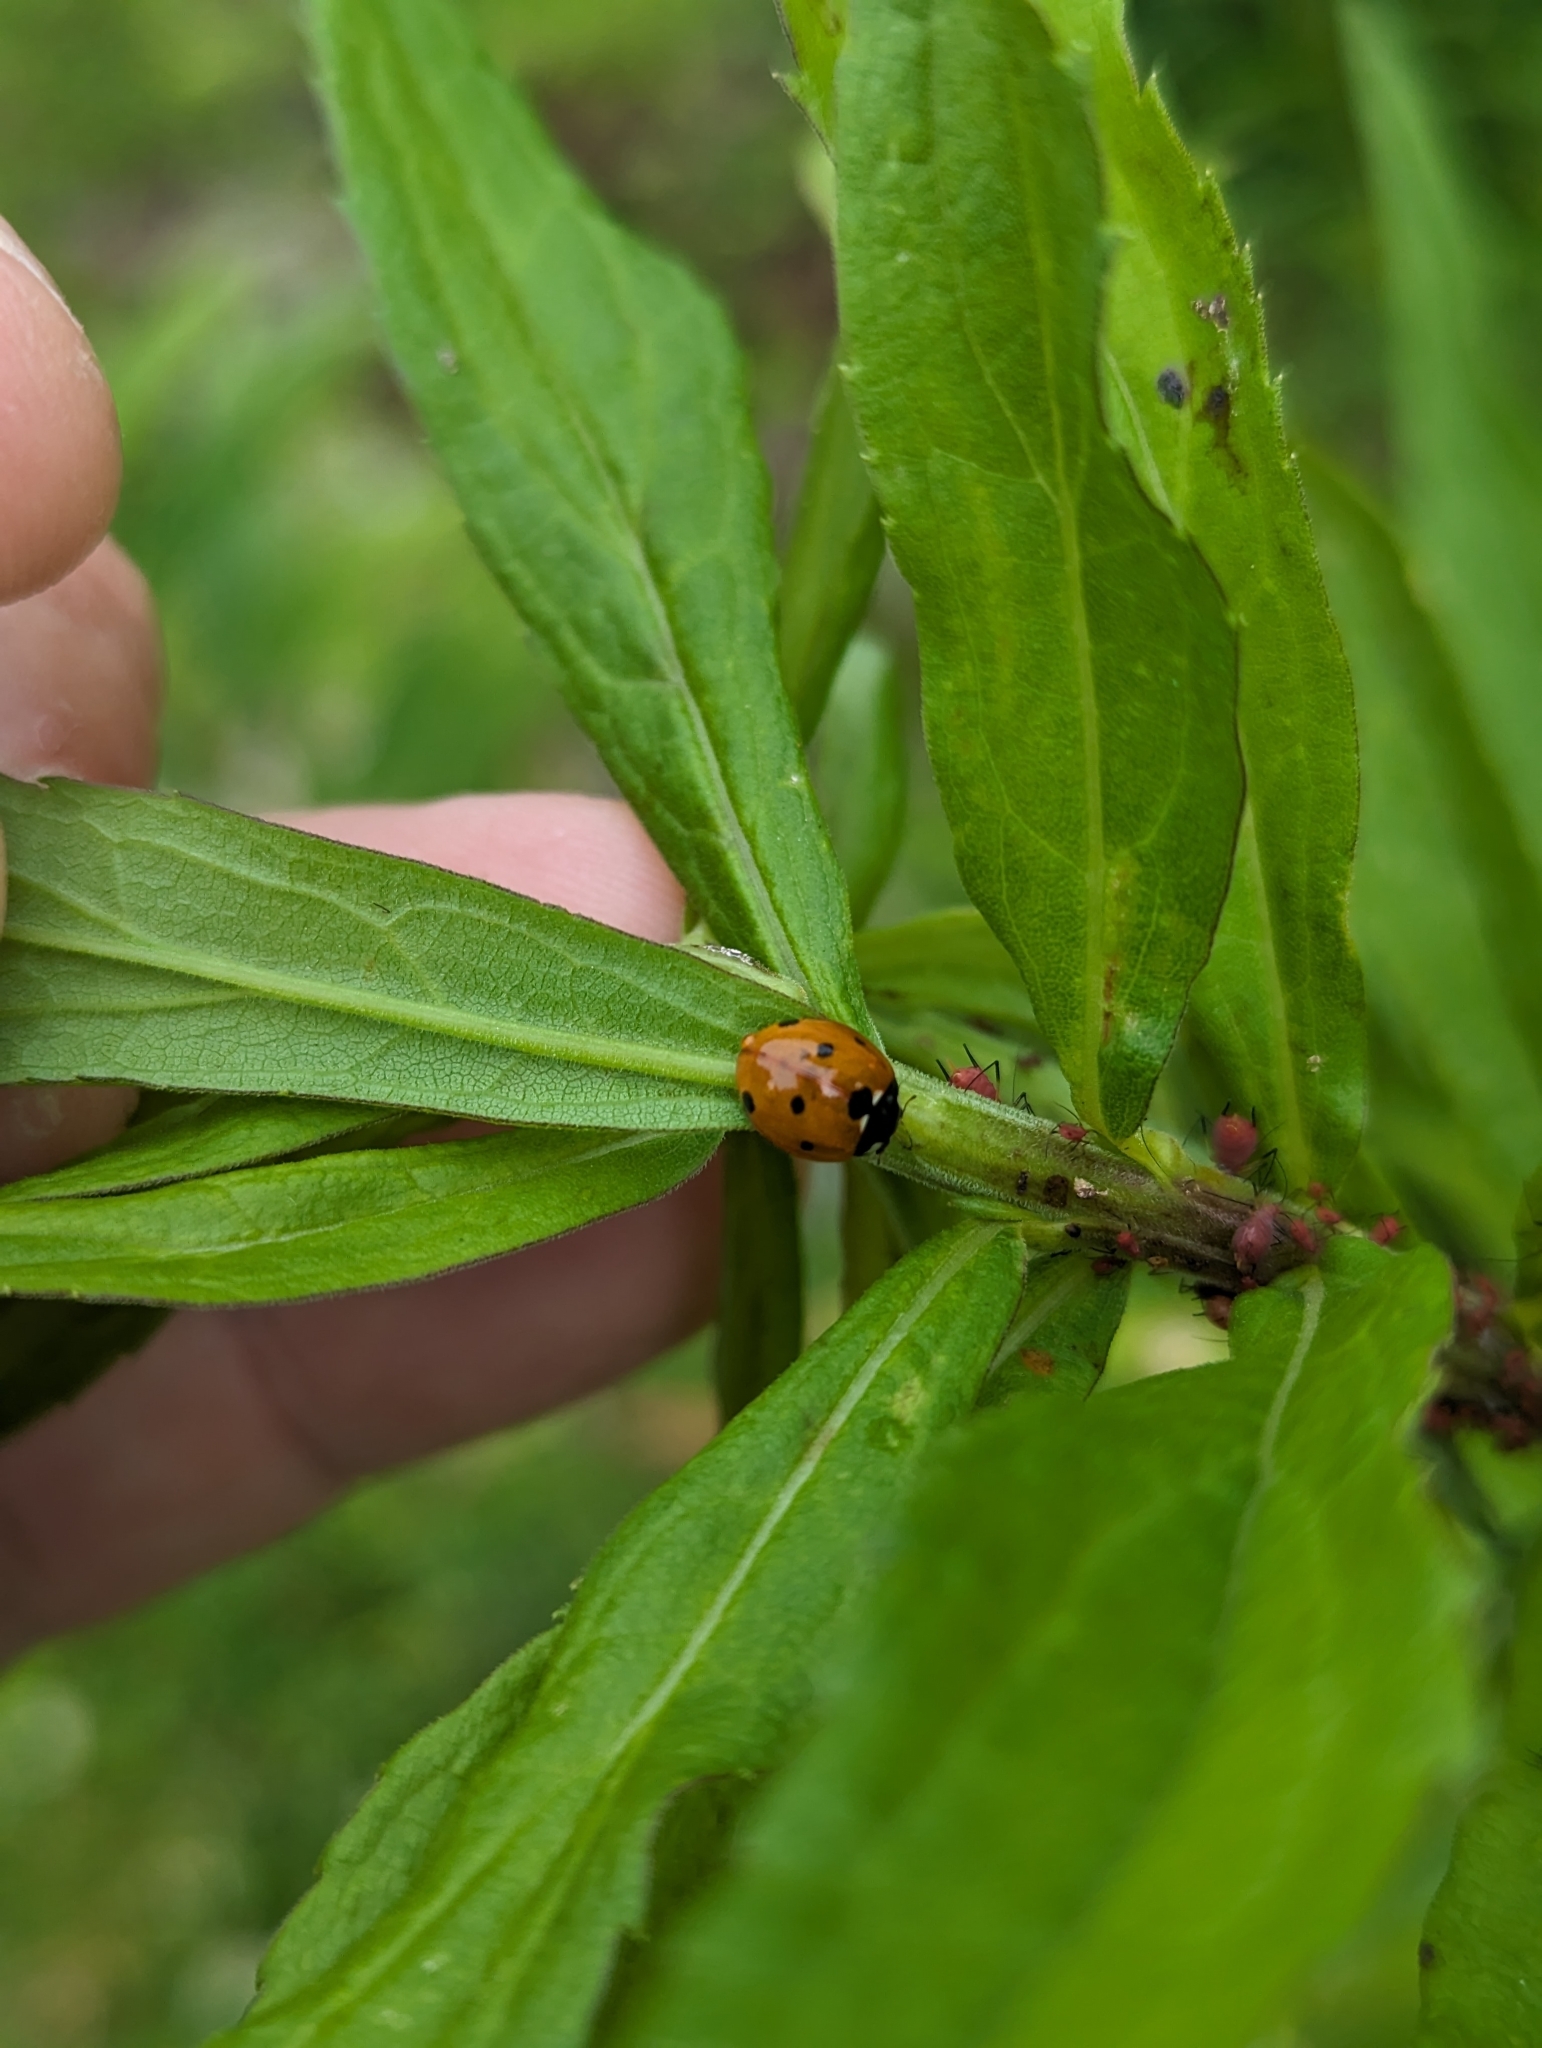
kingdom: Animalia
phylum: Arthropoda
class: Insecta
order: Coleoptera
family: Coccinellidae
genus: Coccinella
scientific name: Coccinella septempunctata
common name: Sevenspotted lady beetle
